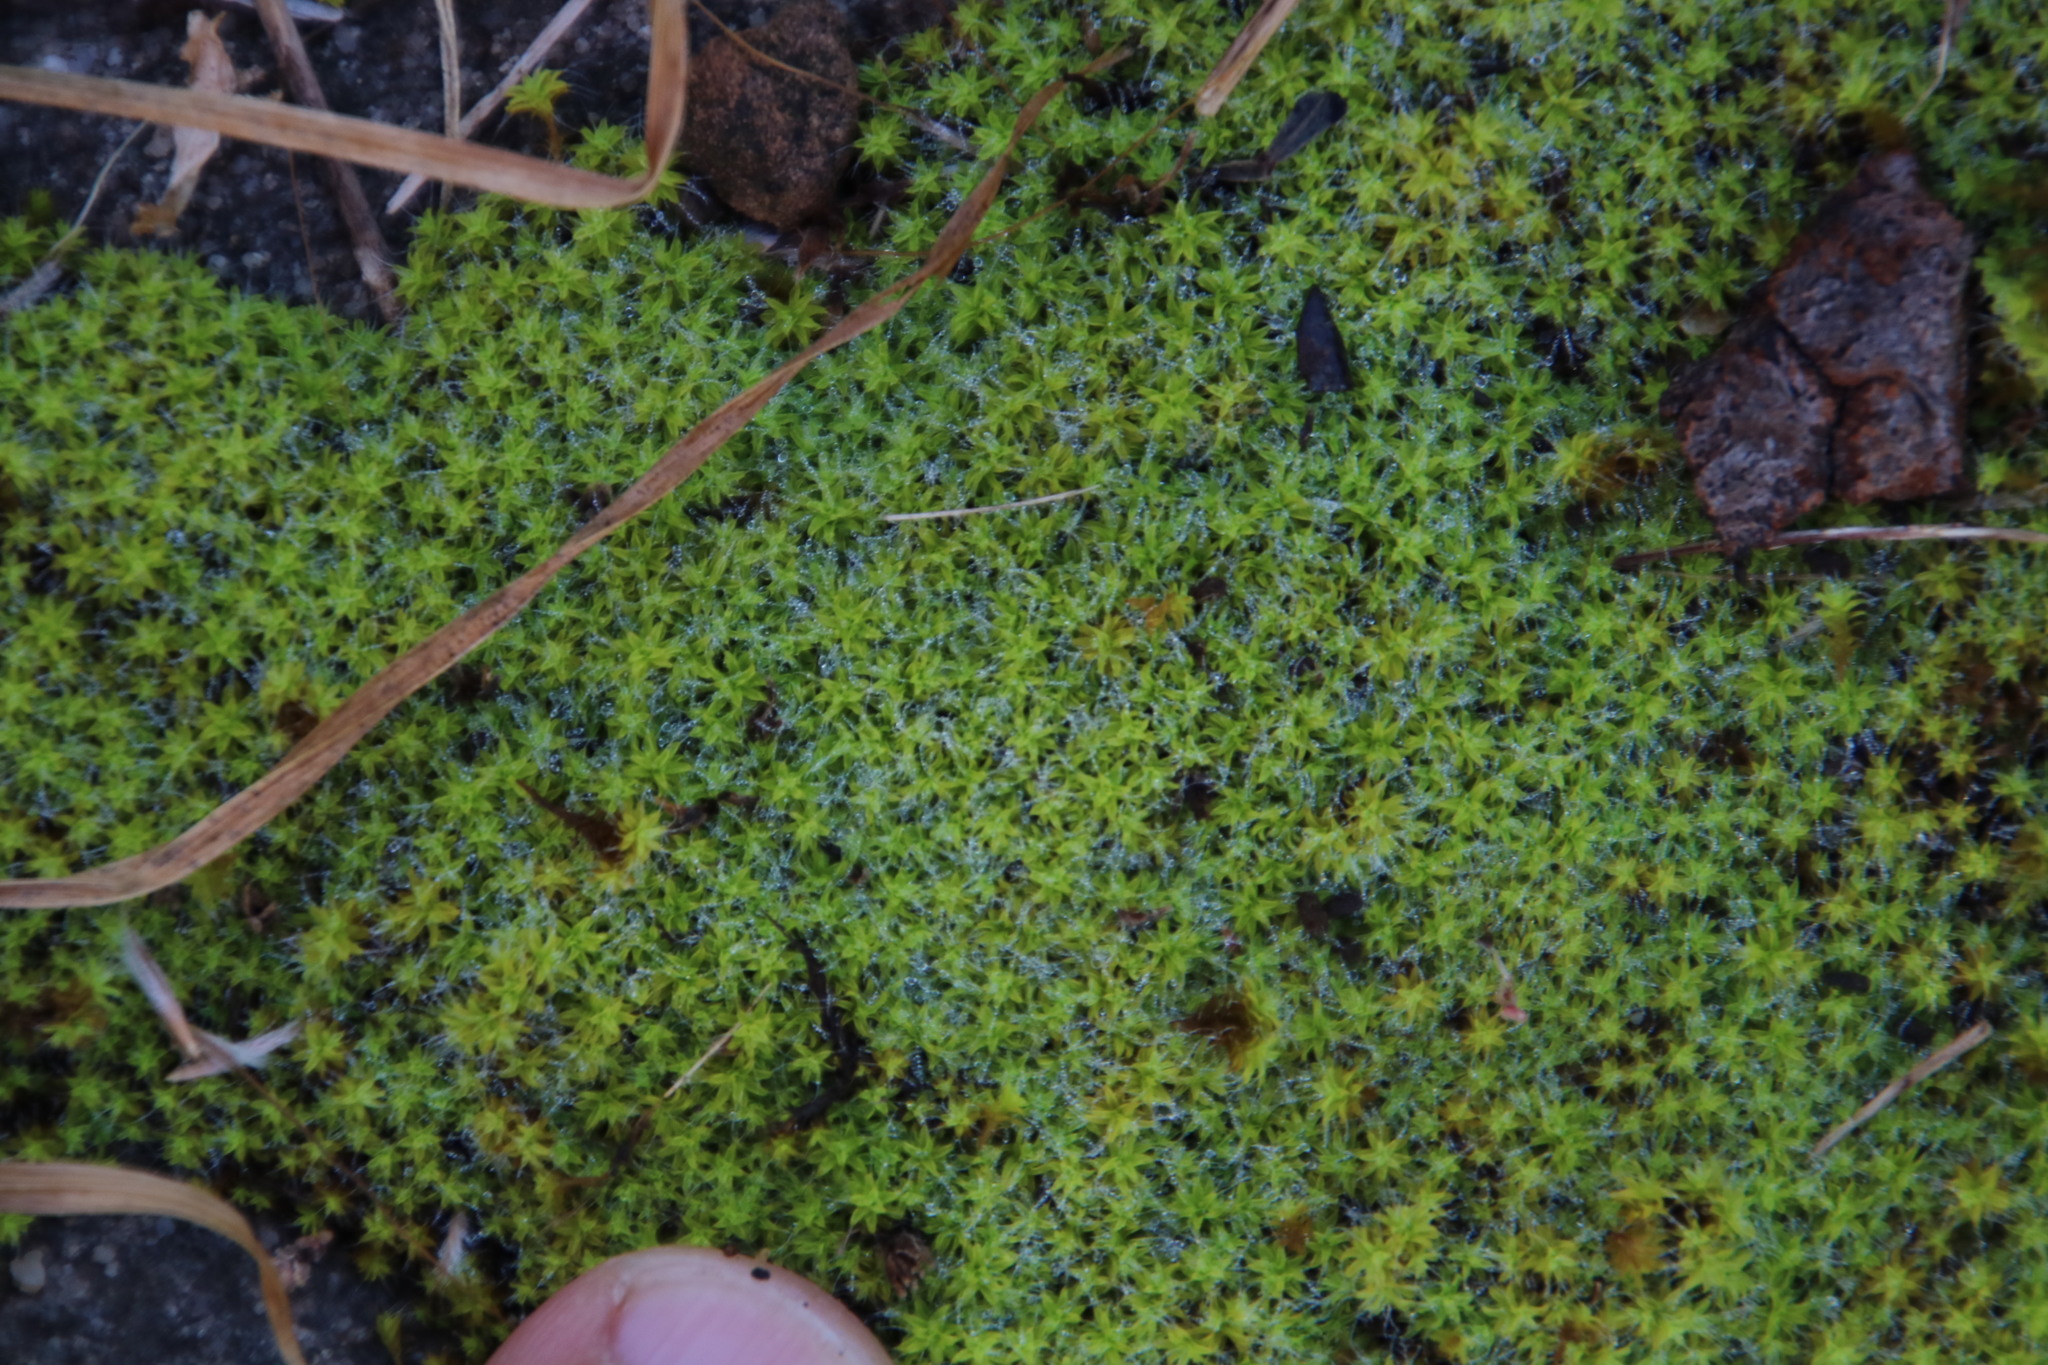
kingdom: Plantae
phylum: Bryophyta
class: Bryopsida
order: Pottiales
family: Pottiaceae
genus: Pseudocrossidium
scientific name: Pseudocrossidium crinitum
